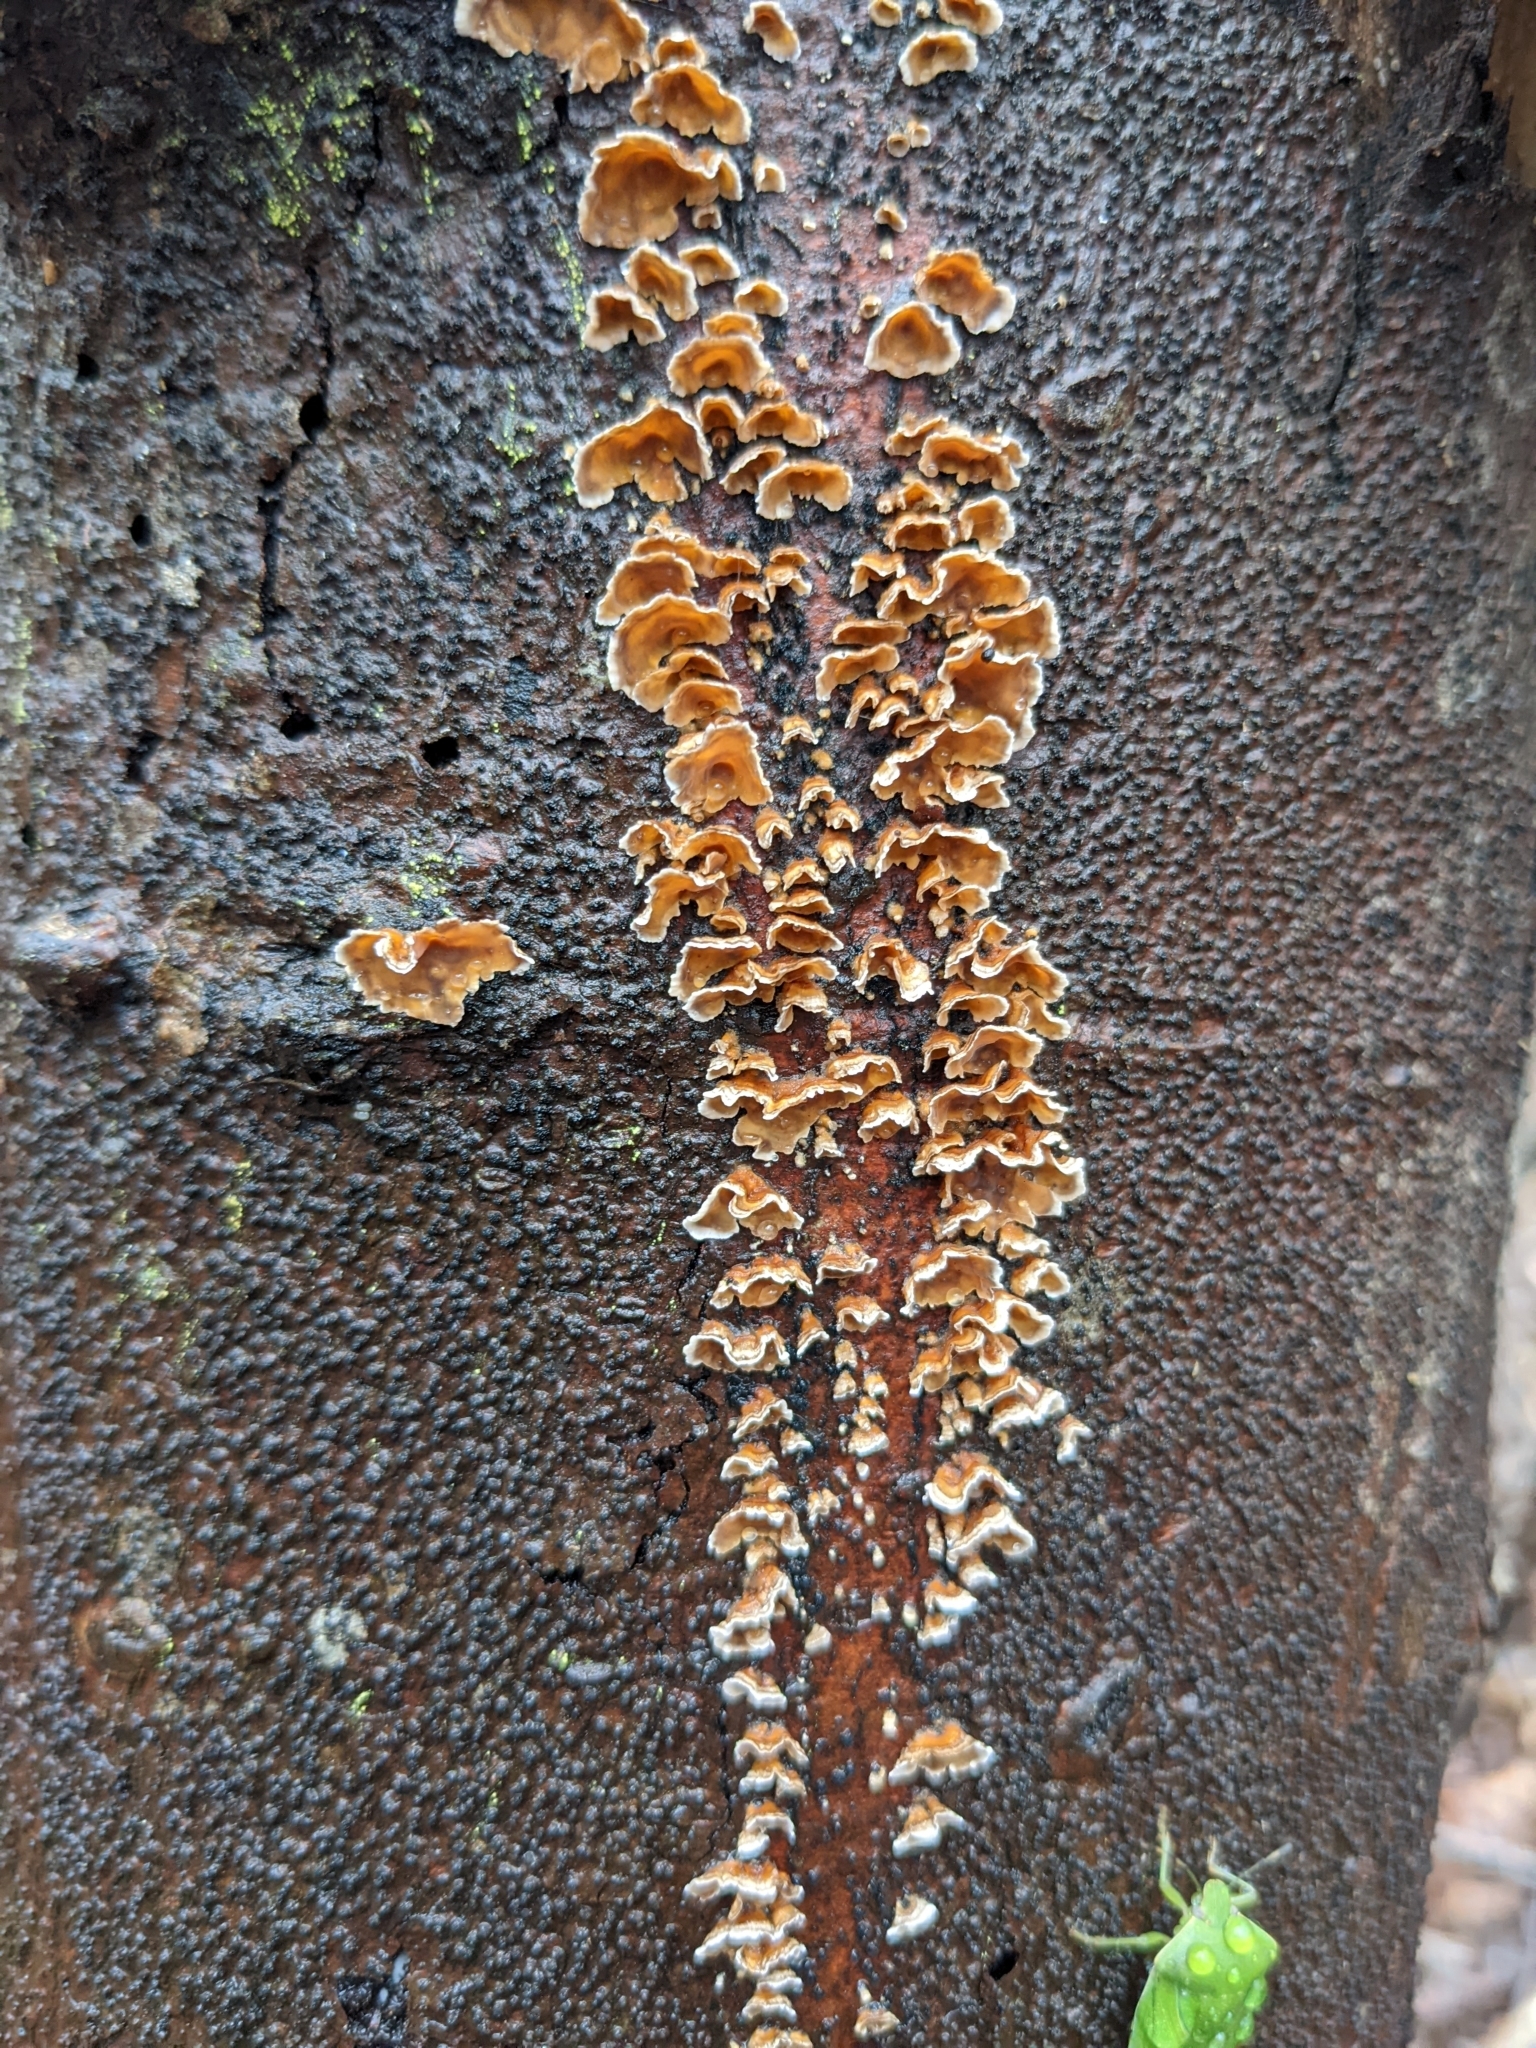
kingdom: Fungi
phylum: Basidiomycota
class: Agaricomycetes
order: Russulales
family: Stereaceae
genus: Stereum
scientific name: Stereum complicatum
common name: Crowded parchment
